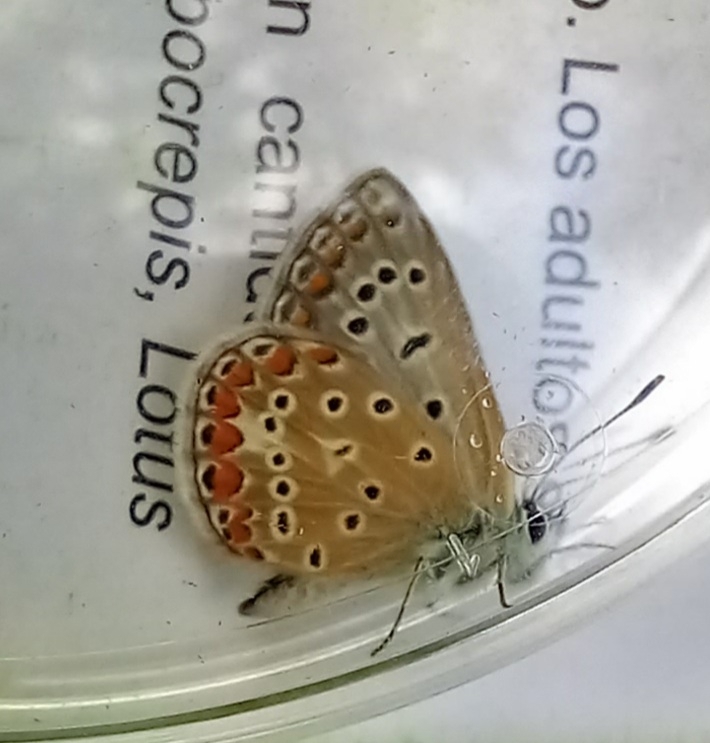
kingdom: Animalia
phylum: Arthropoda
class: Insecta
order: Lepidoptera
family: Lycaenidae
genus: Polyommatus
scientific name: Polyommatus icarus
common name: Common blue
